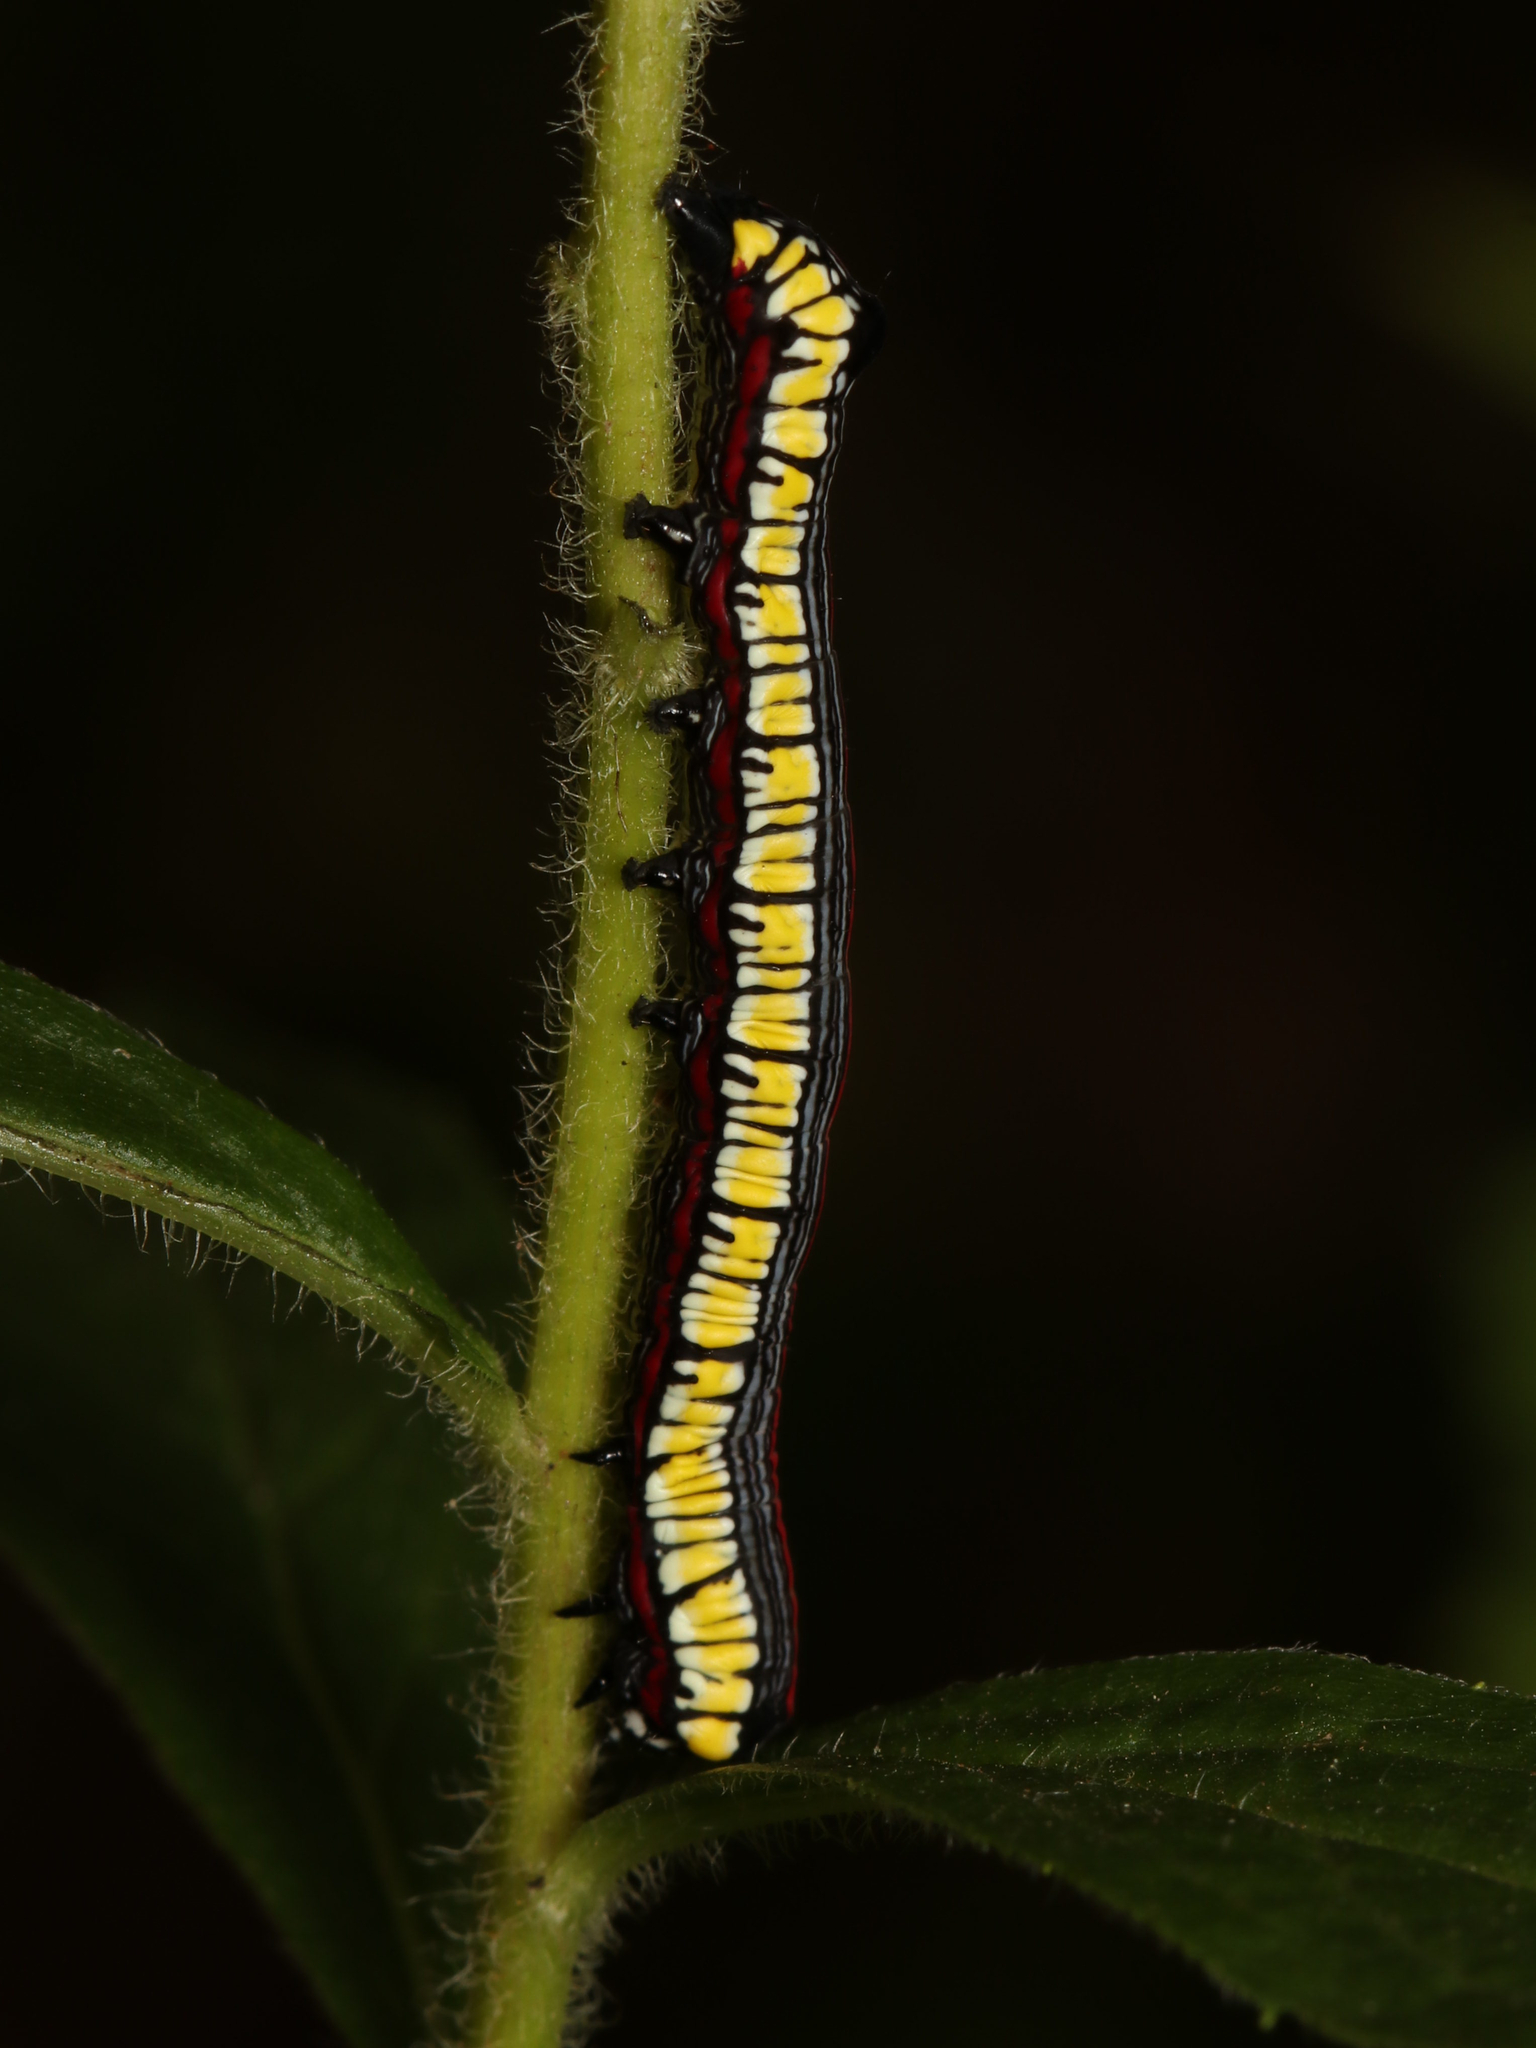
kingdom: Animalia
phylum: Arthropoda
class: Insecta
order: Lepidoptera
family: Noctuidae
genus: Cucullia
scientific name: Cucullia convexipennis
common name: Brown-hooded owlet
